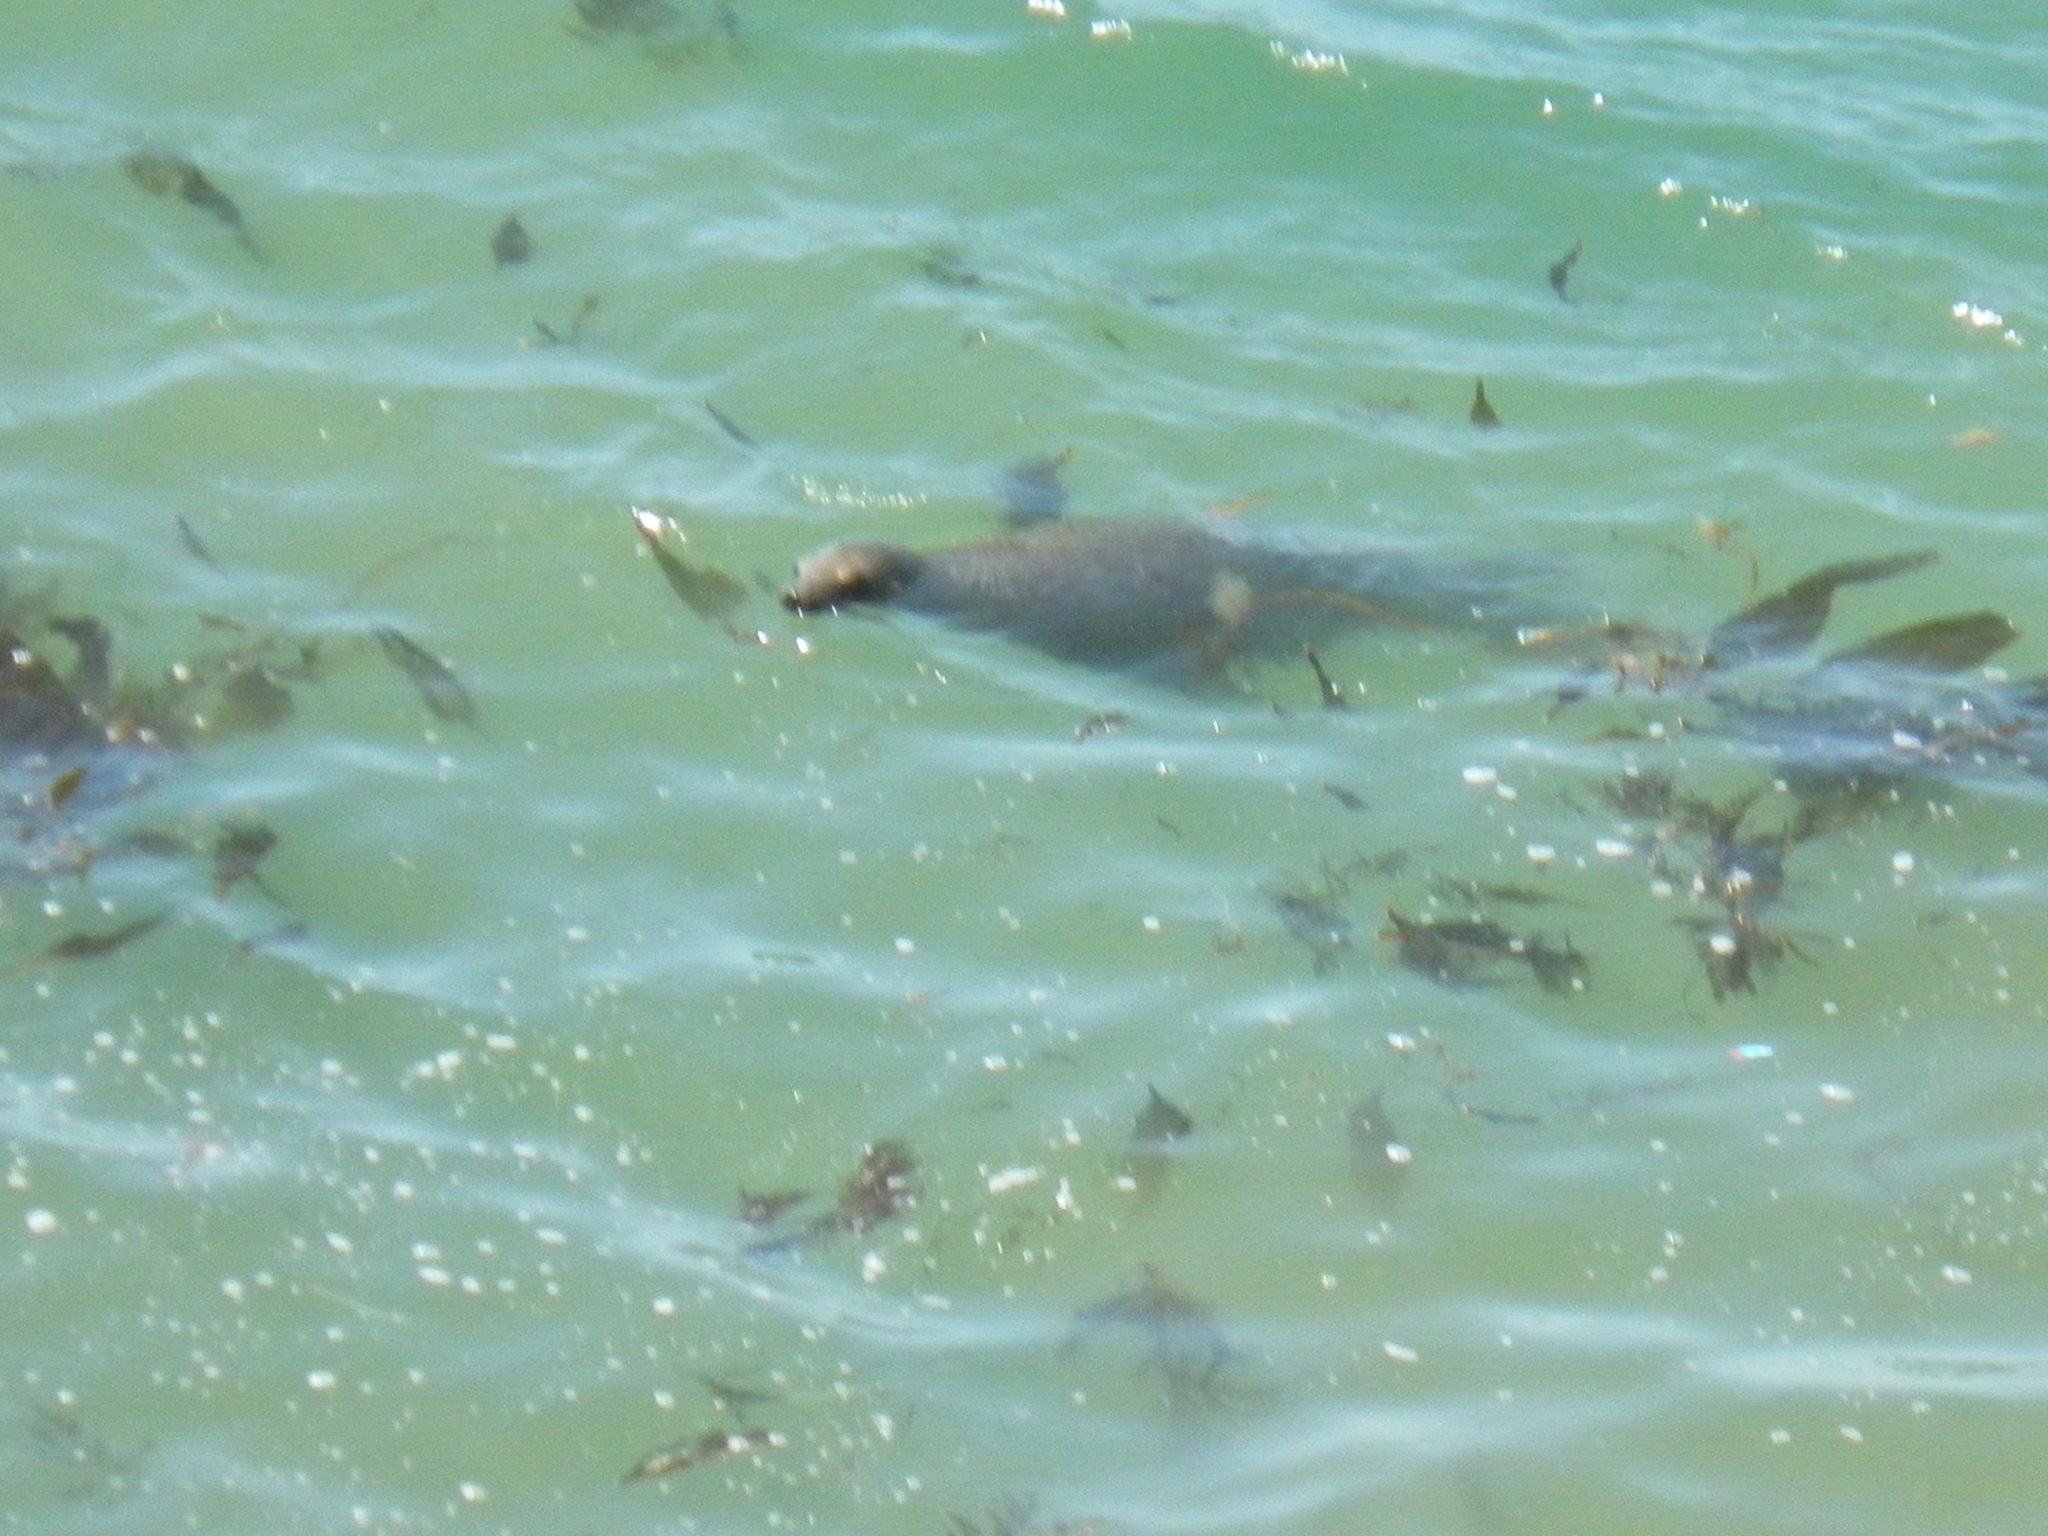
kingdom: Animalia
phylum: Chordata
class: Mammalia
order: Carnivora
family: Otariidae
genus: Zalophus
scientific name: Zalophus californianus
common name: California sea lion
